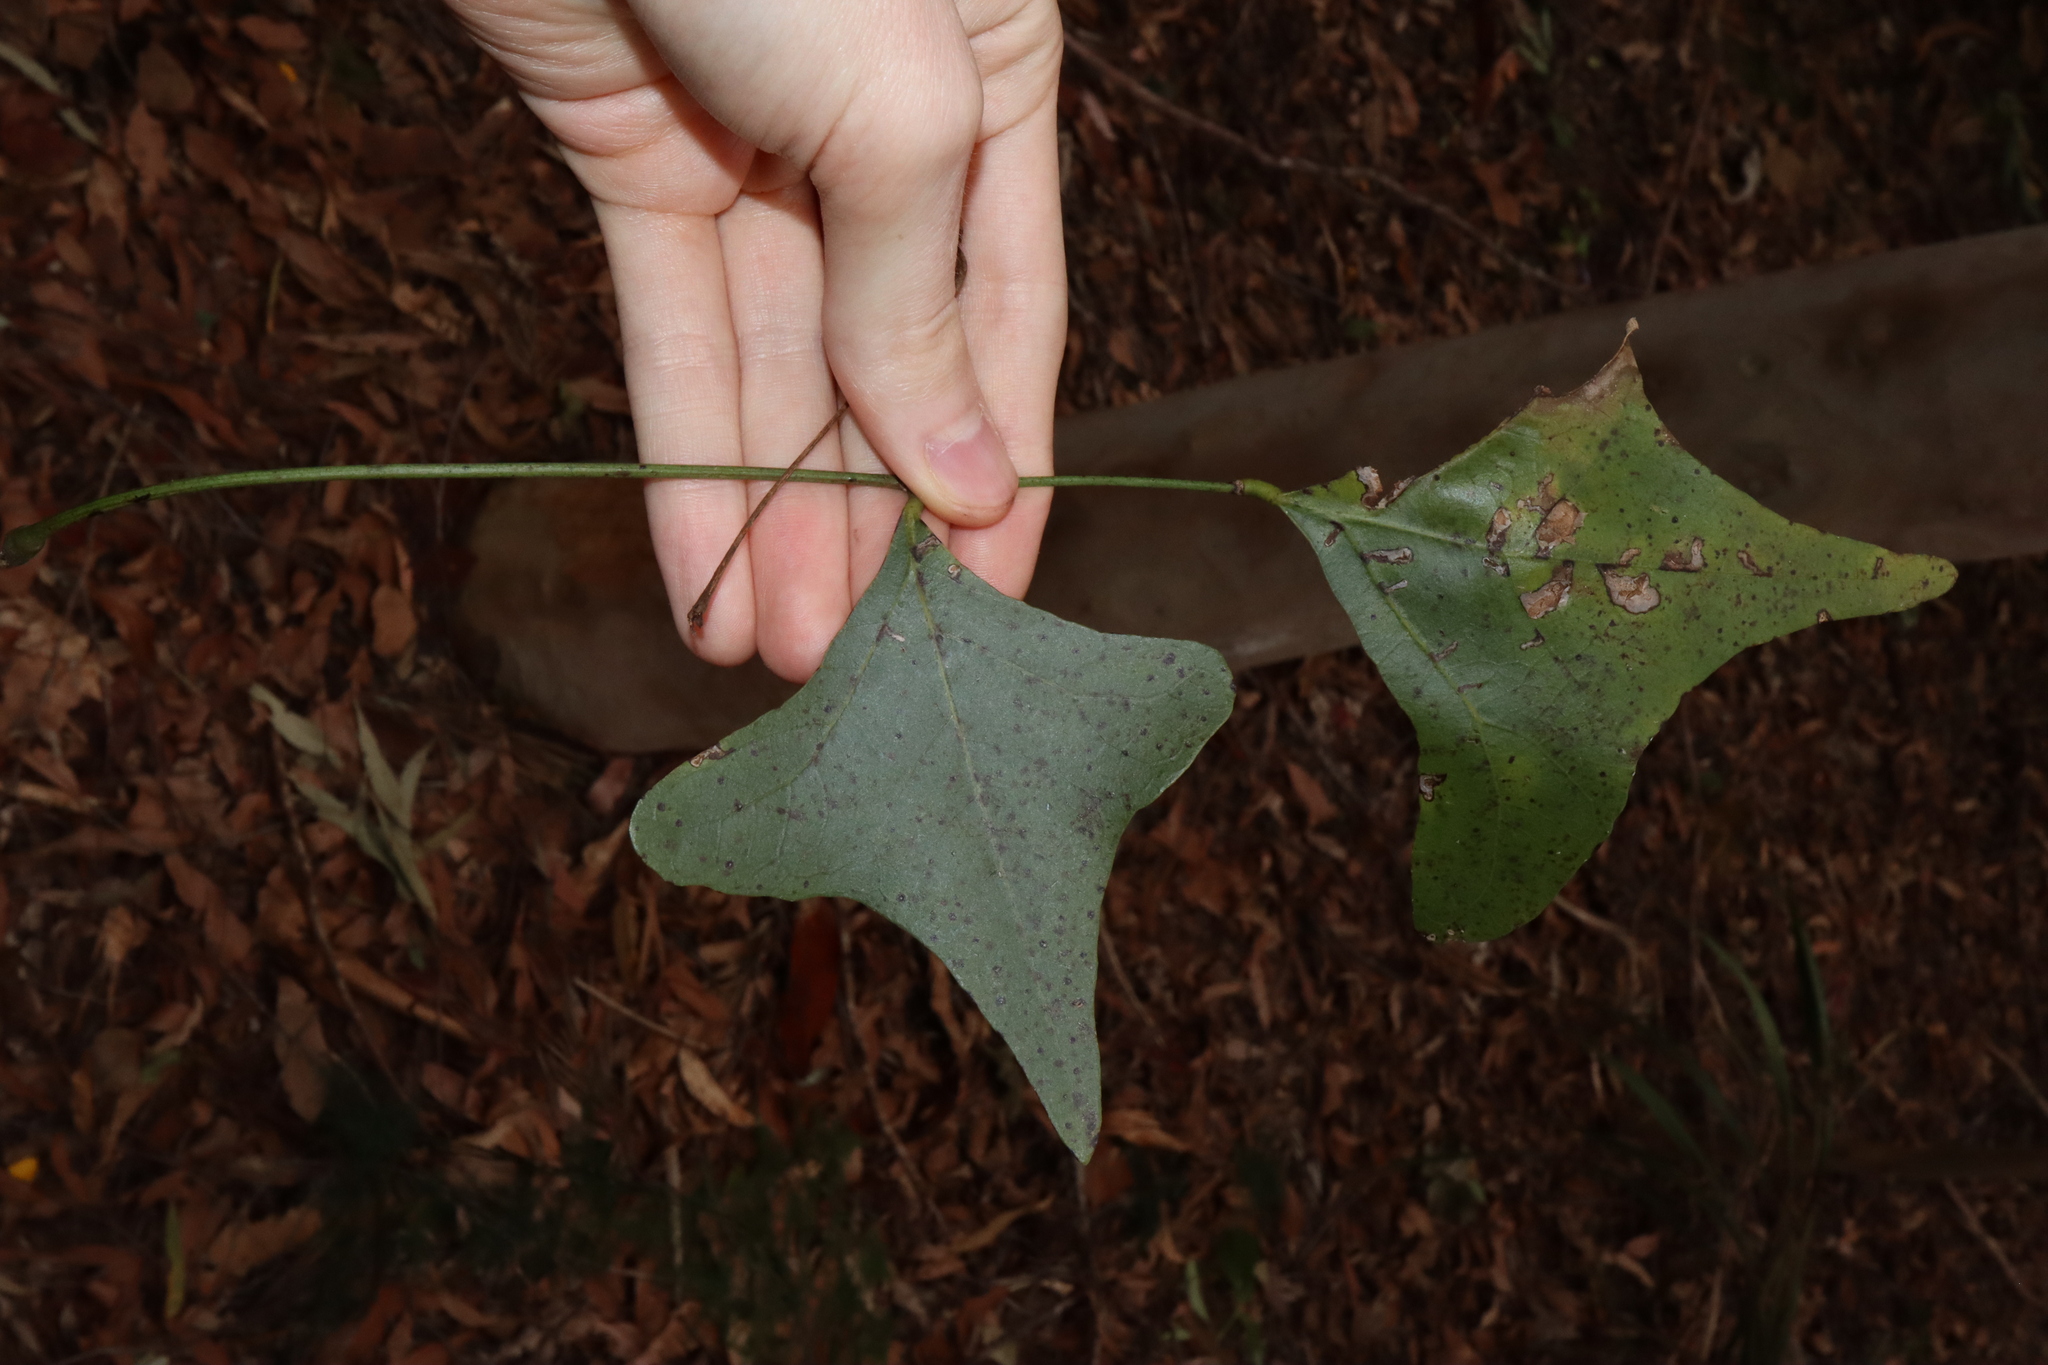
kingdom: Plantae
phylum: Tracheophyta
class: Magnoliopsida
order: Fabales
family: Fabaceae
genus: Erythrina
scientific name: Erythrina vespertilio
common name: Bat-wing coral tree
